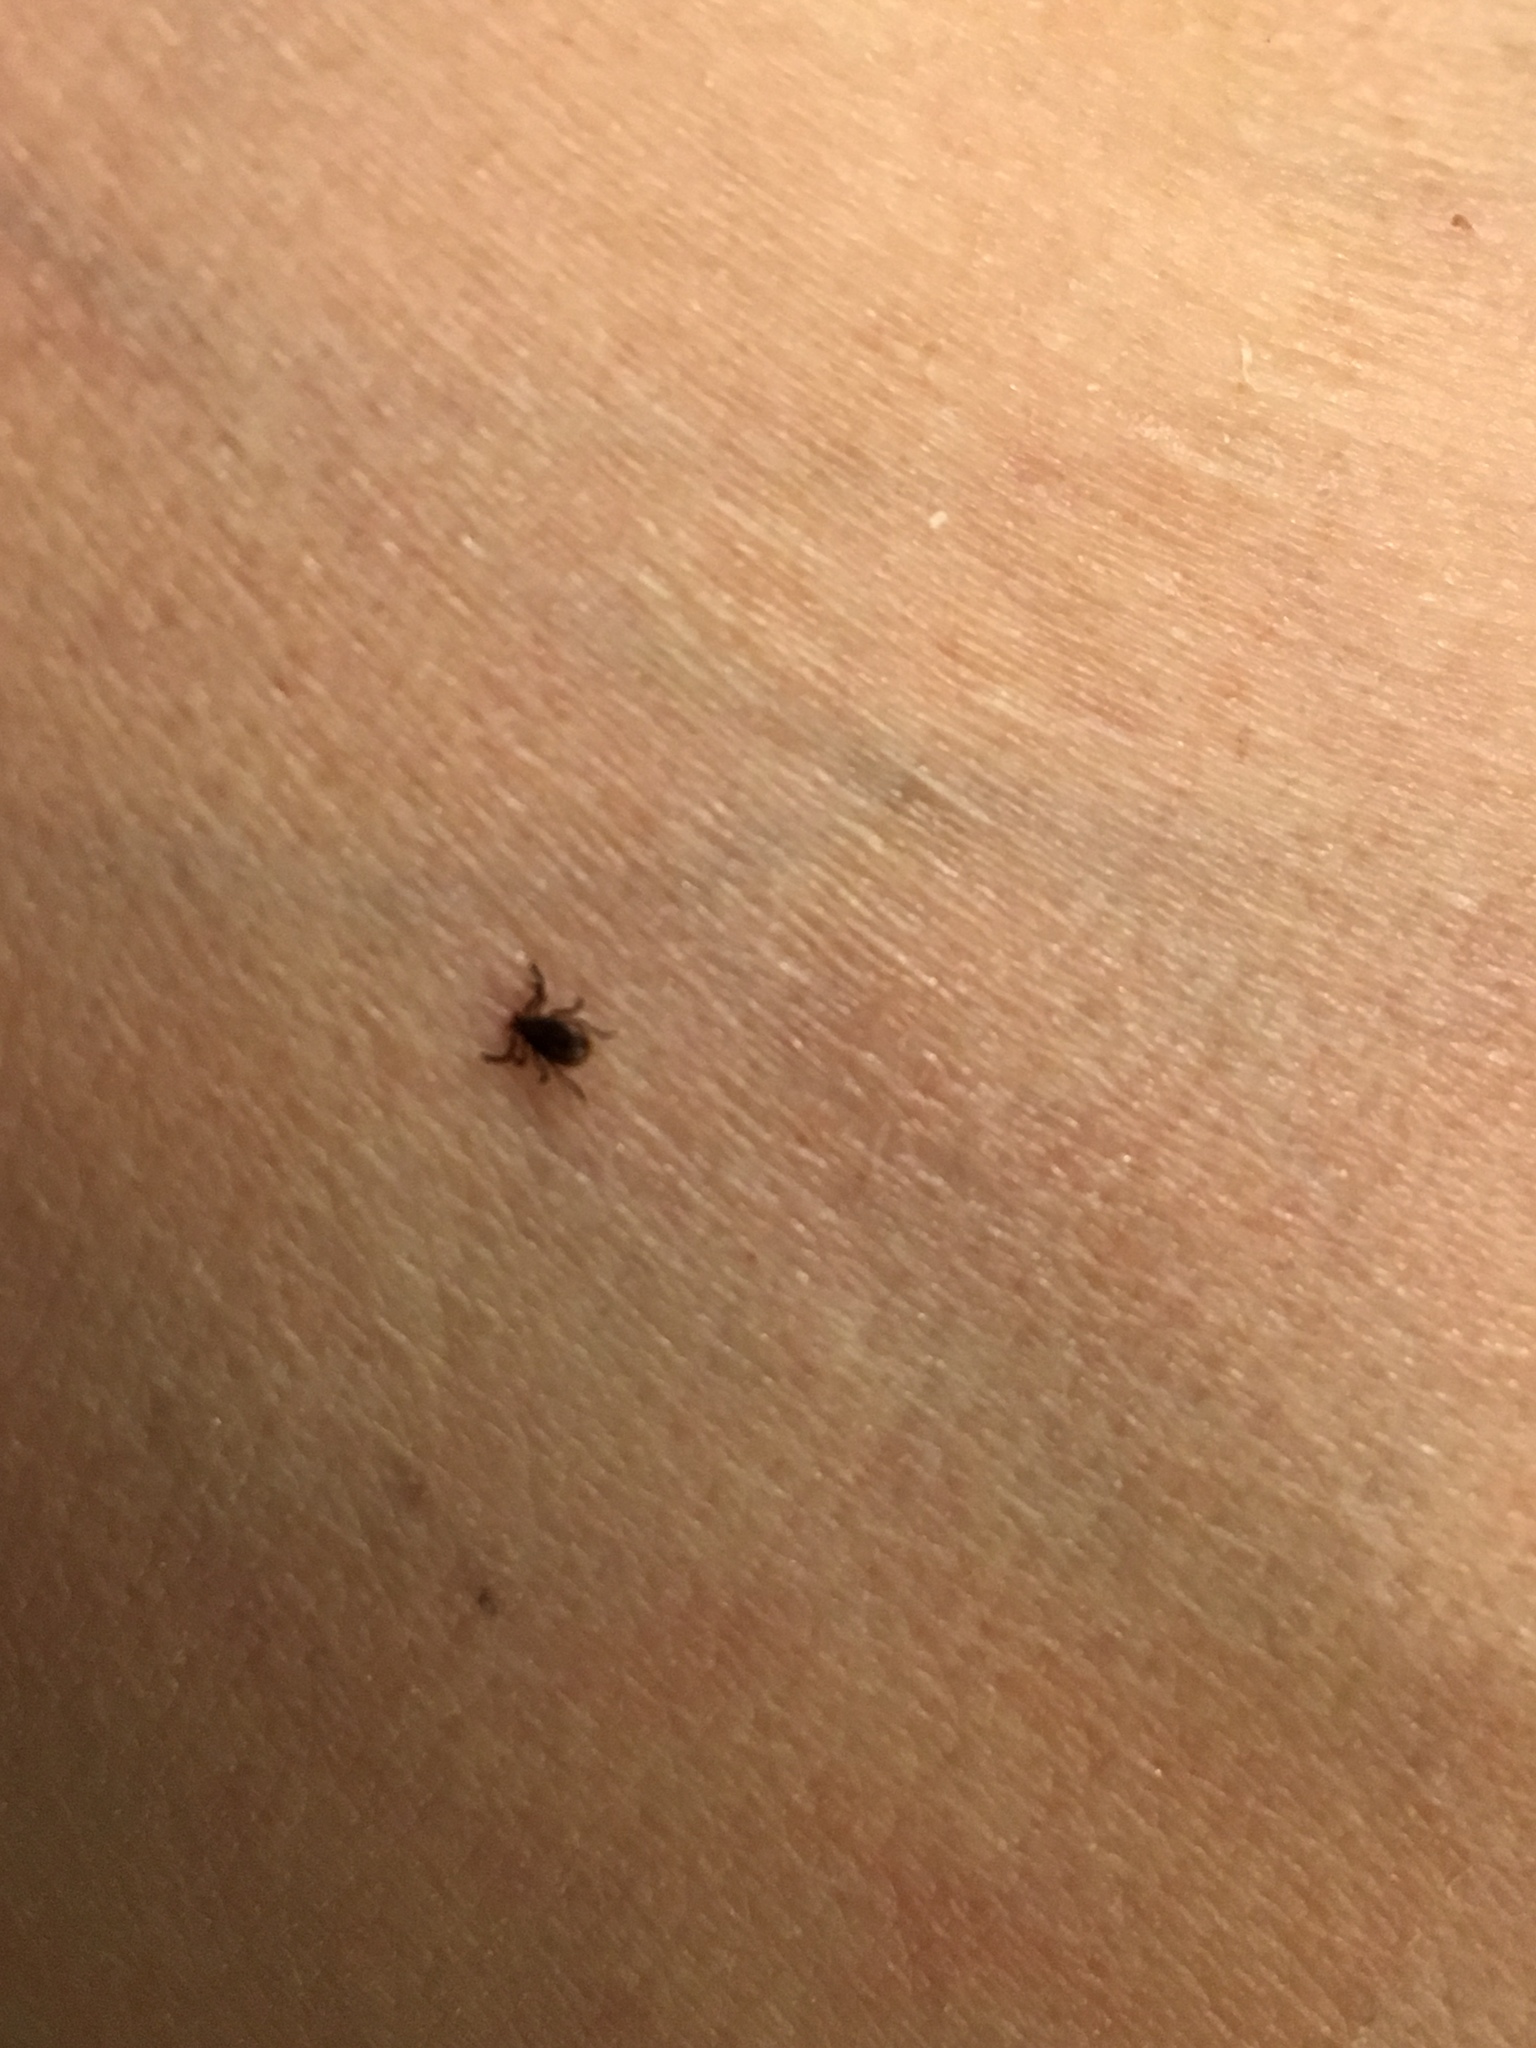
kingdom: Animalia
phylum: Arthropoda
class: Arachnida
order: Ixodida
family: Ixodidae
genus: Ixodes
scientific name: Ixodes scapularis
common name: Black legged tick
